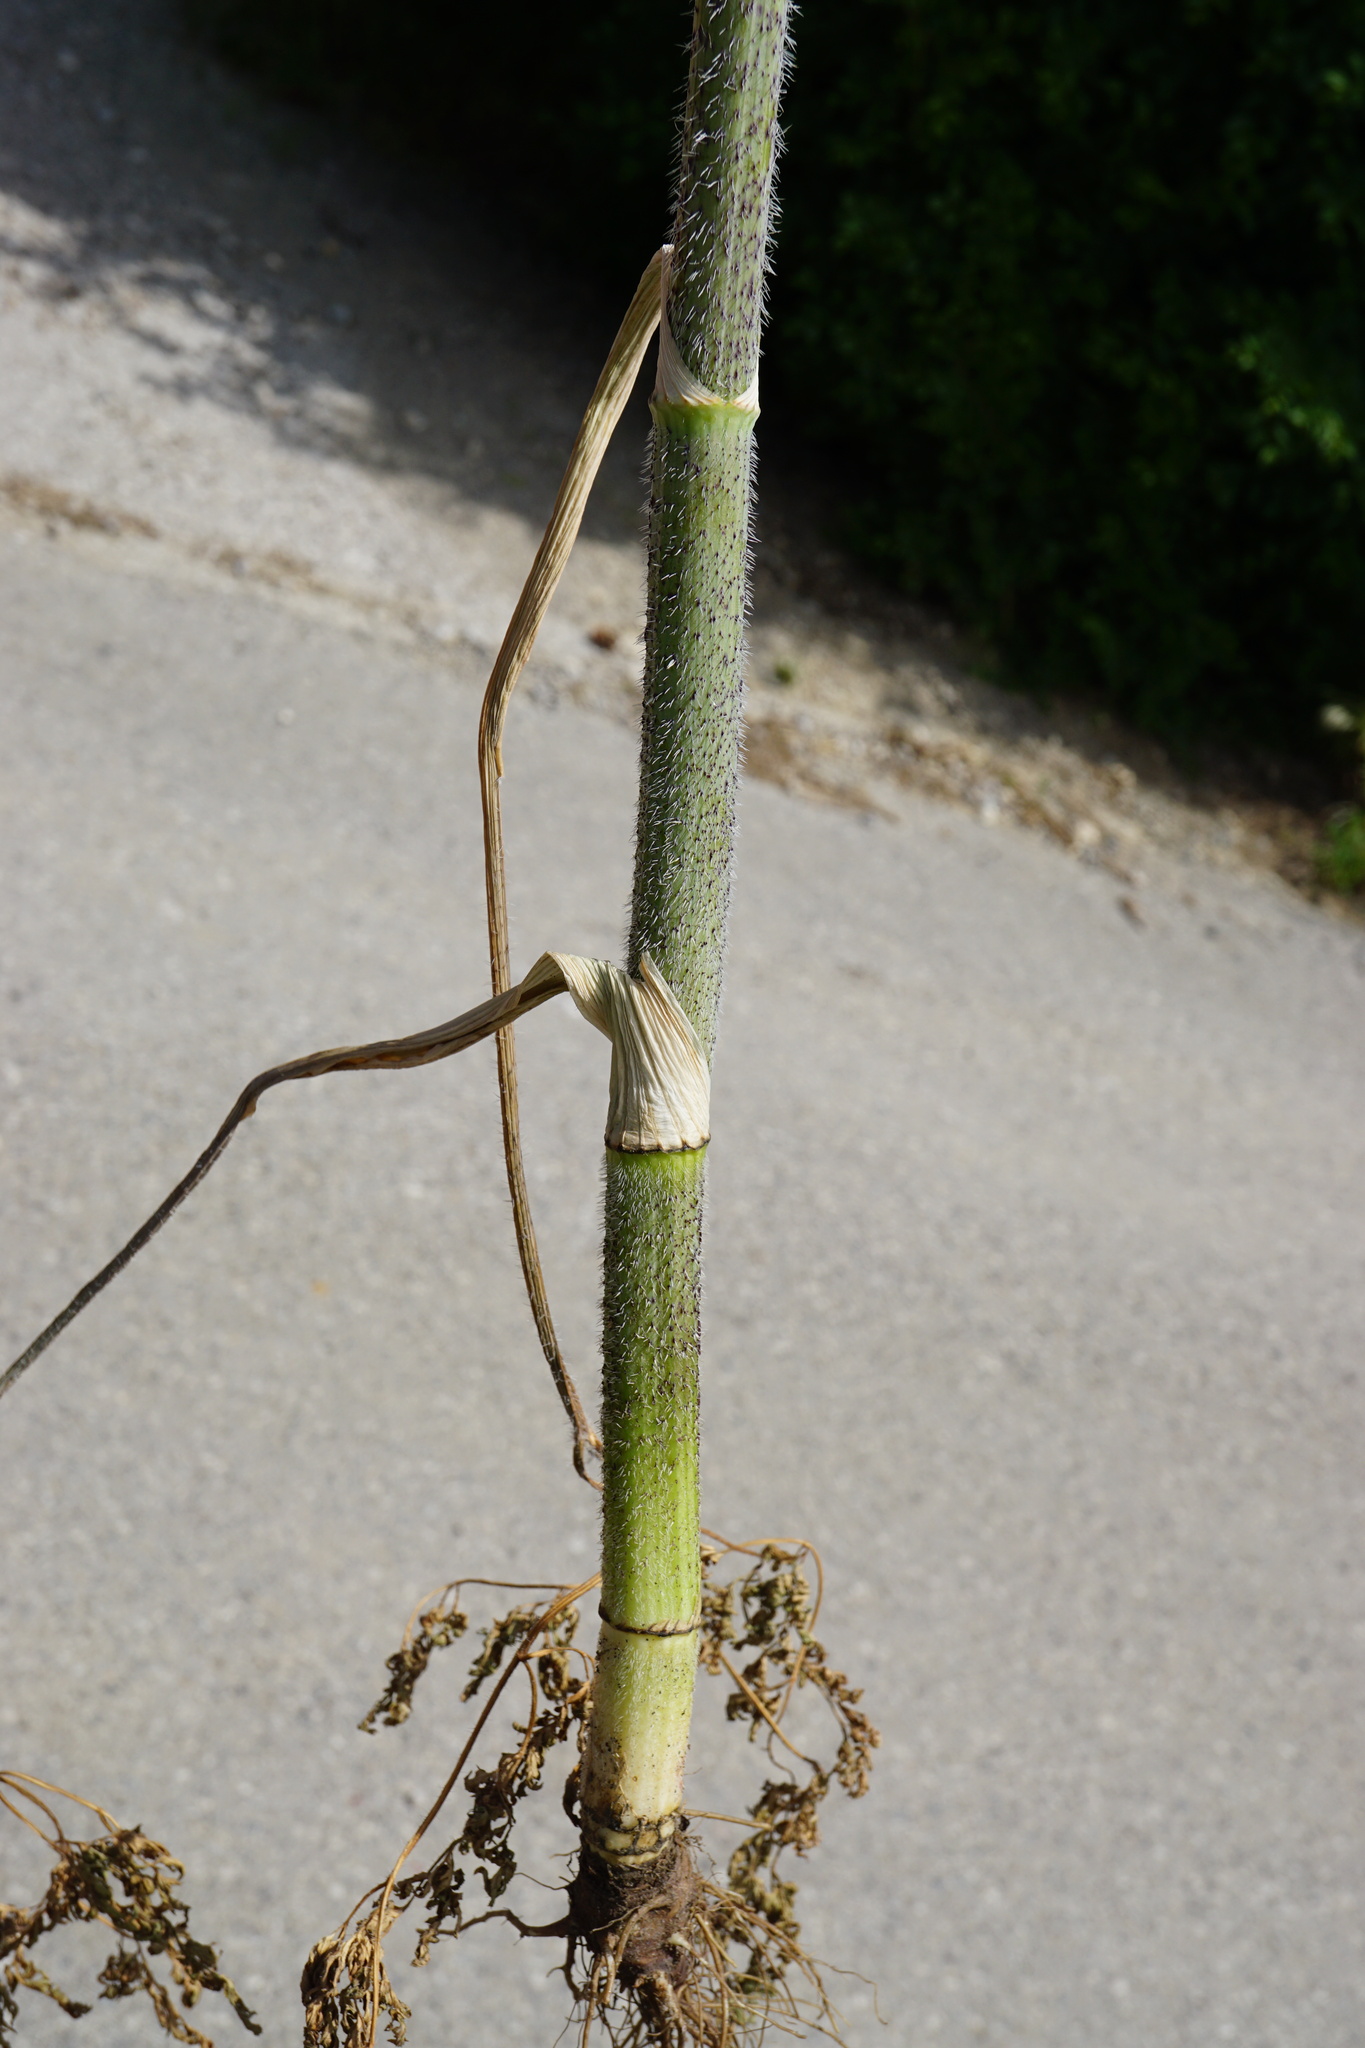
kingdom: Plantae
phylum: Tracheophyta
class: Magnoliopsida
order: Apiales
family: Apiaceae
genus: Chaerophyllum
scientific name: Chaerophyllum bulbosum
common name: Bulbous chervil
